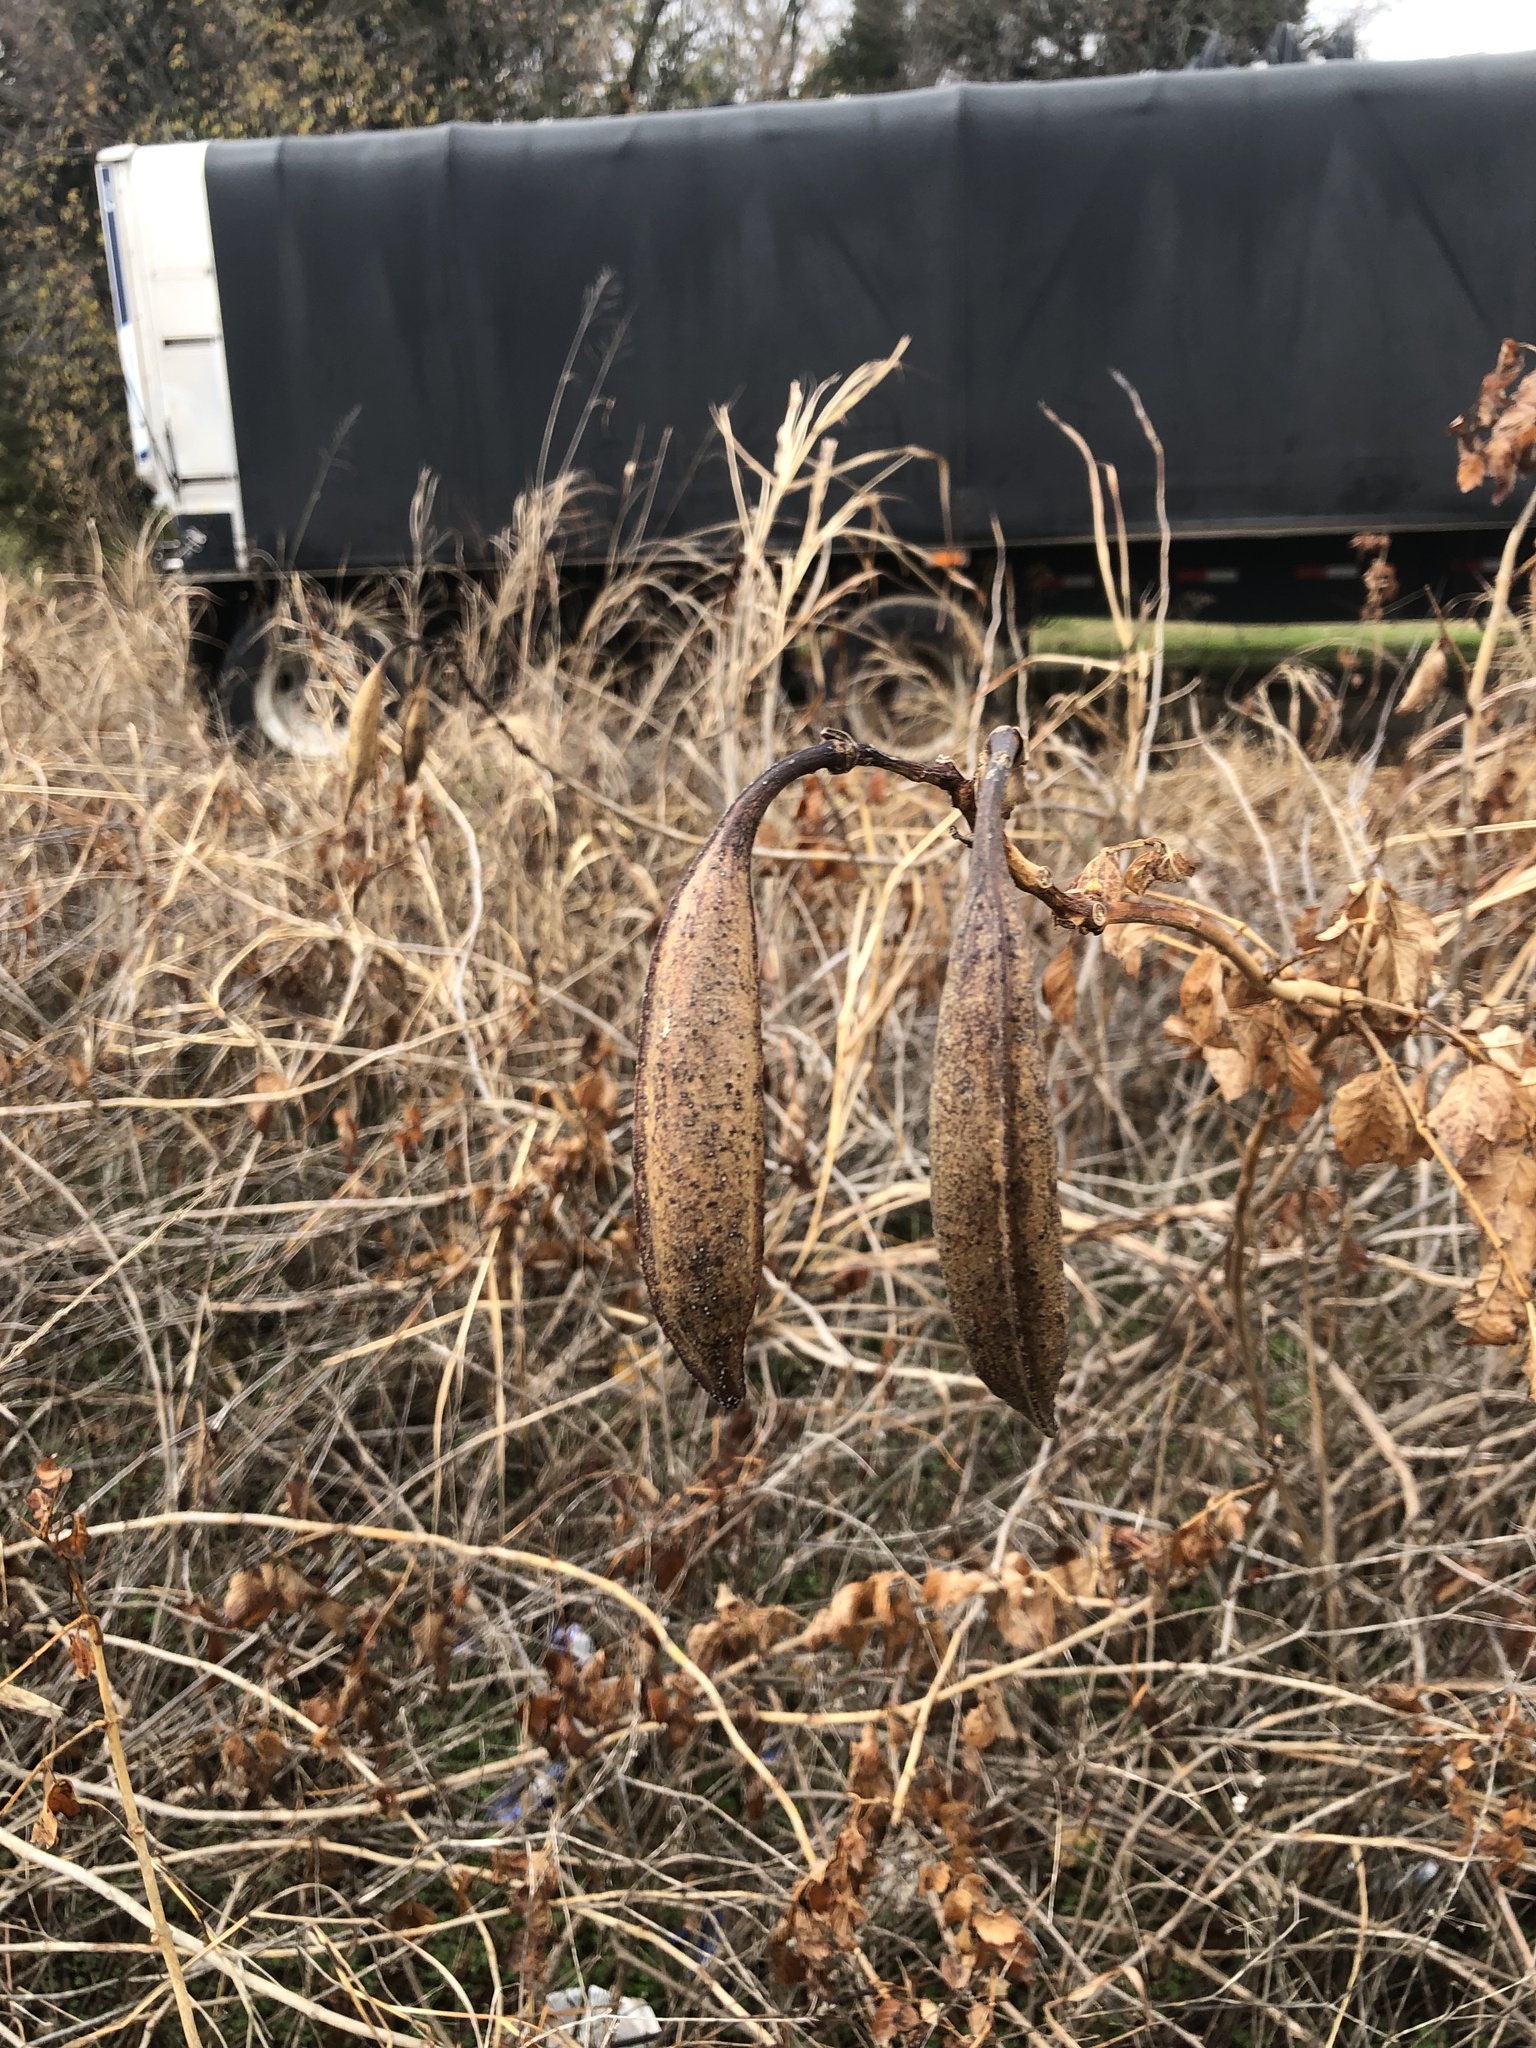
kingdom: Plantae
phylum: Tracheophyta
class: Magnoliopsida
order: Lamiales
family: Bignoniaceae
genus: Campsis
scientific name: Campsis radicans
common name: Trumpet-creeper
